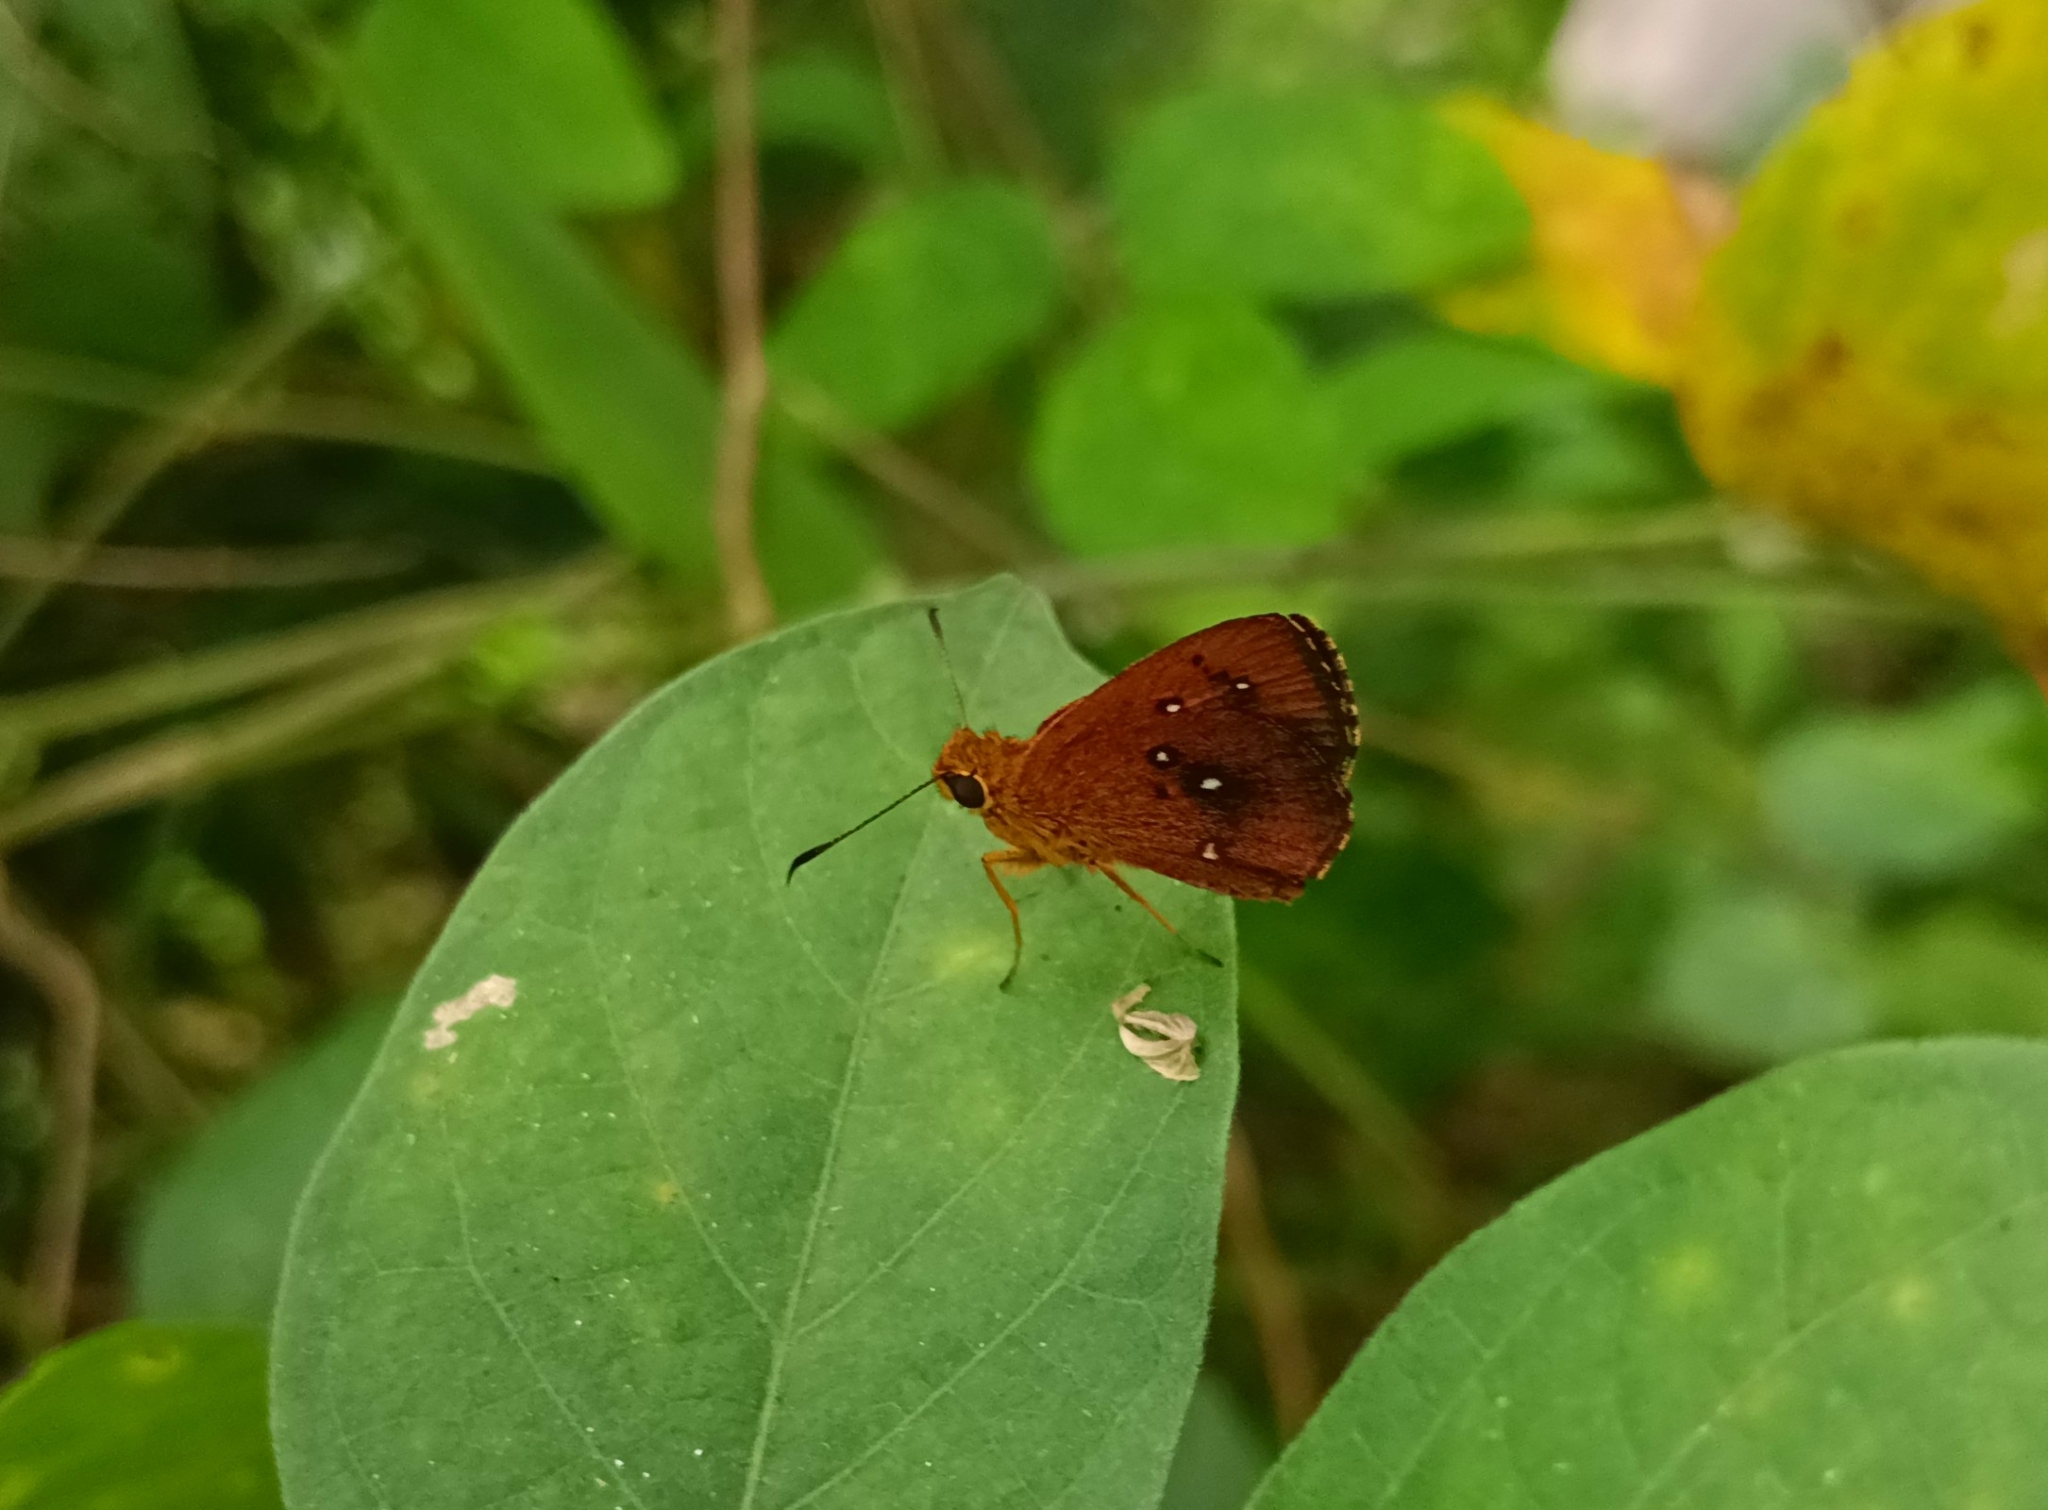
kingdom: Animalia
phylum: Arthropoda
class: Insecta
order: Lepidoptera
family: Hesperiidae
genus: Iambrix
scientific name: Iambrix salsala
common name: Chestnut bob
